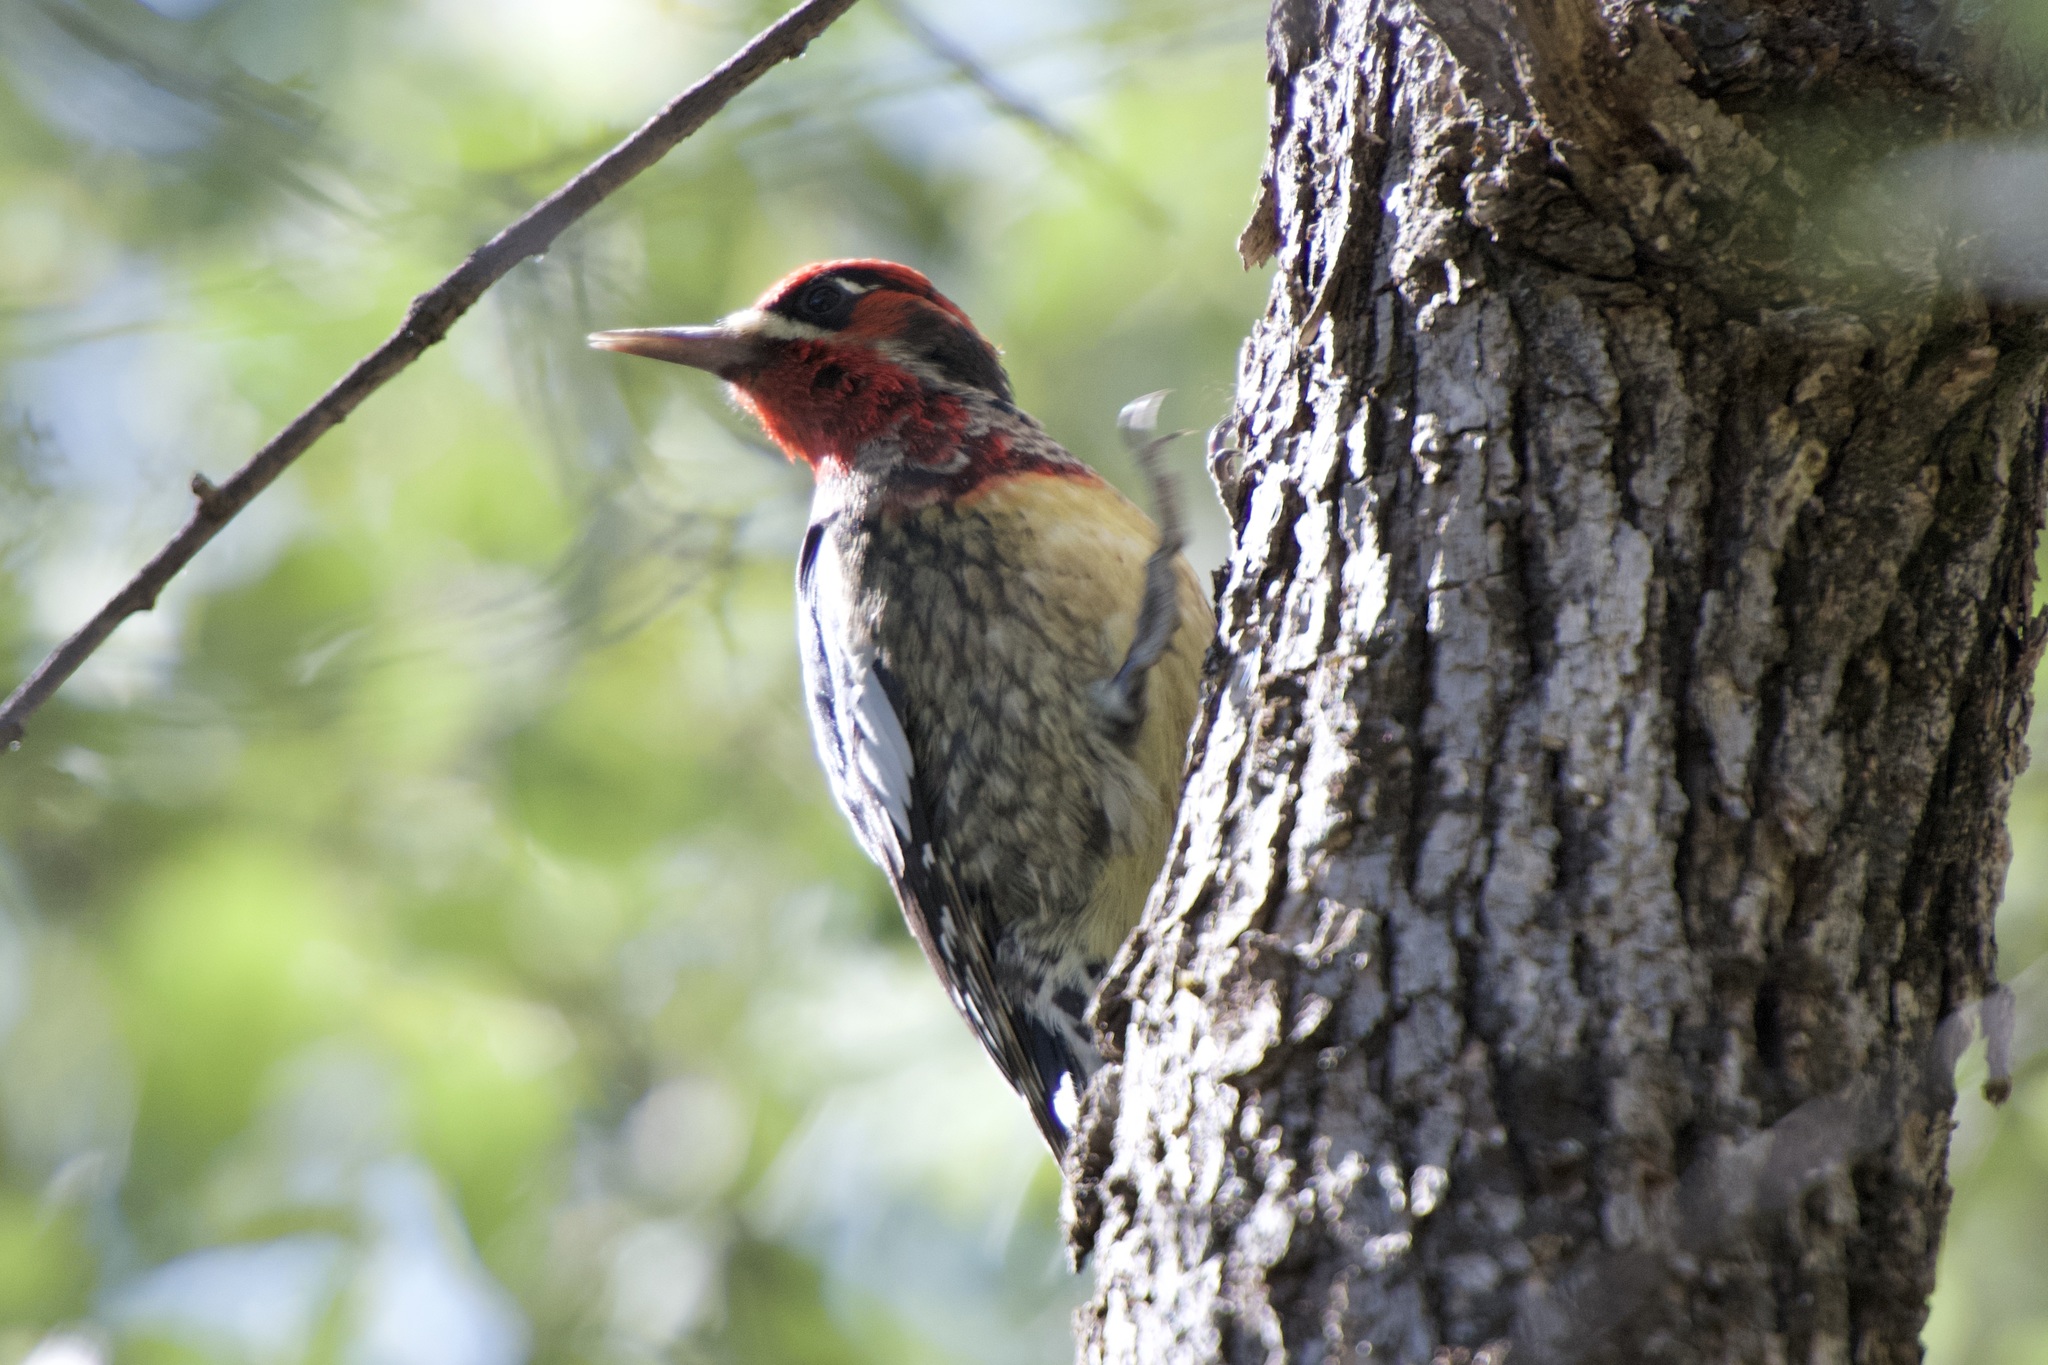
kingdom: Animalia
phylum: Chordata
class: Aves
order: Piciformes
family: Picidae
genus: Sphyrapicus
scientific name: Sphyrapicus
